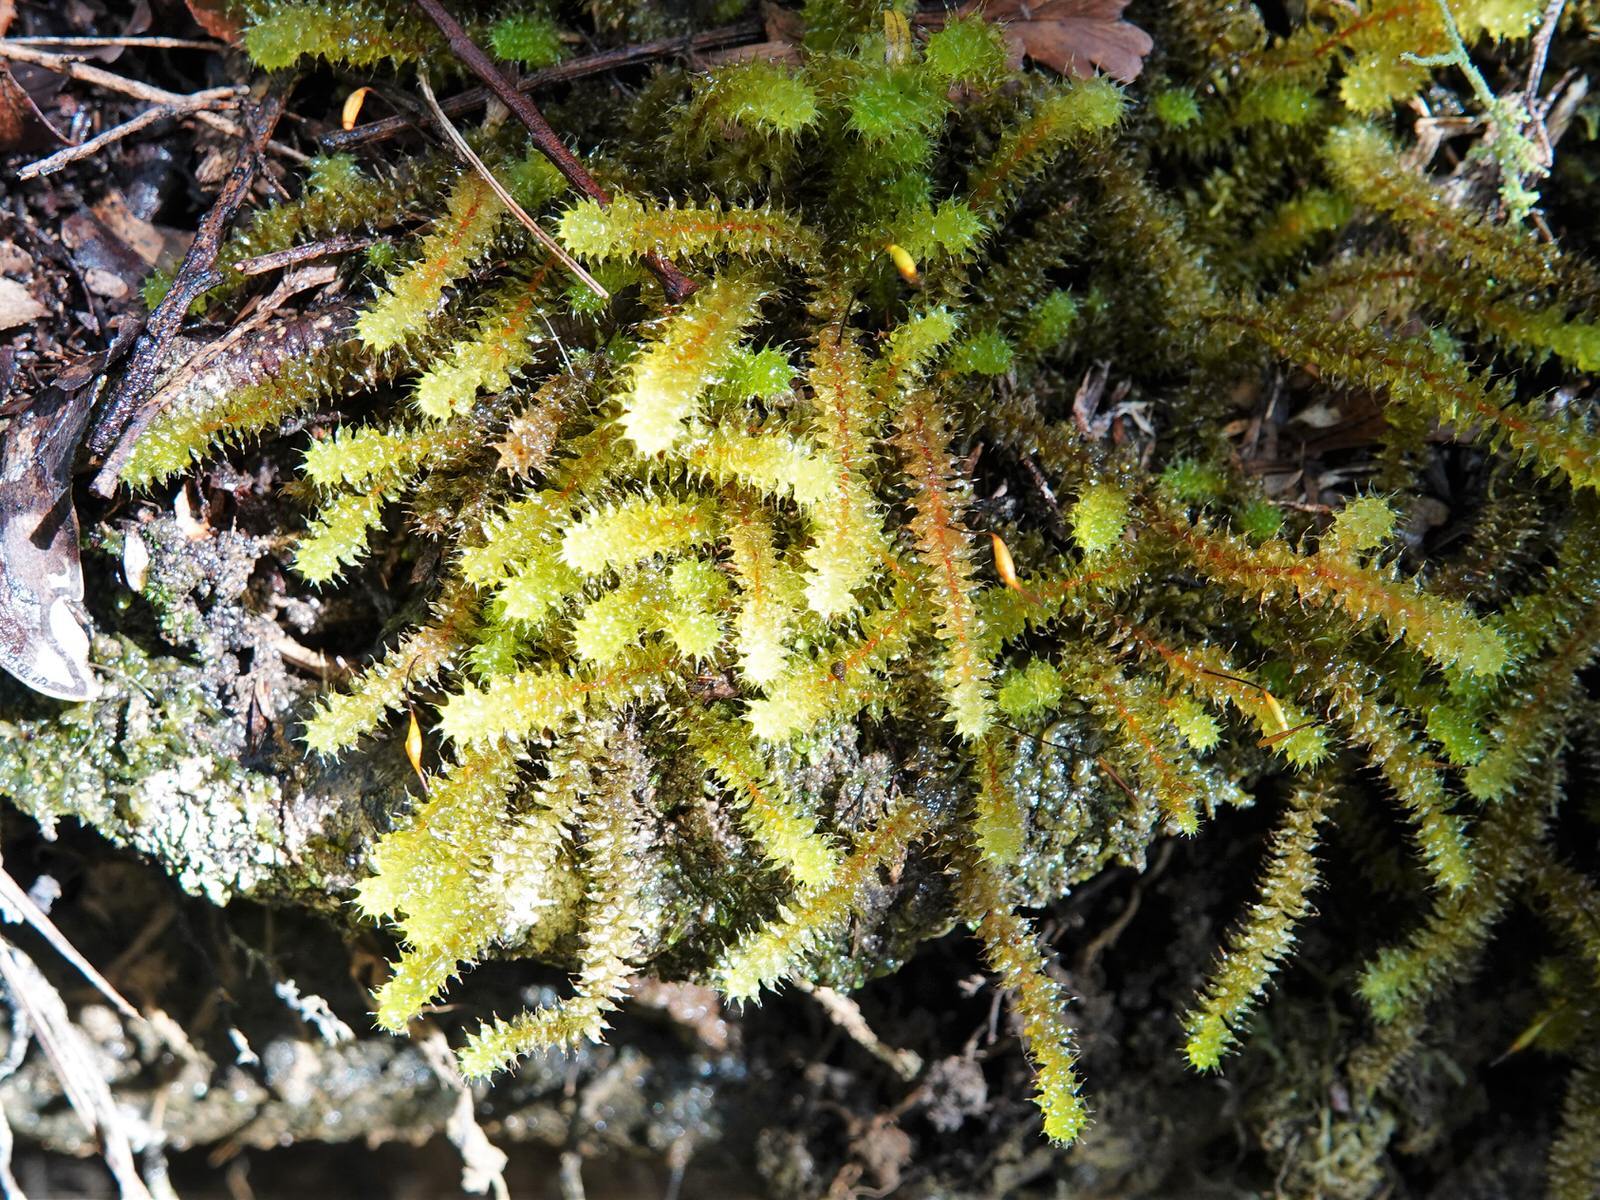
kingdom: Plantae
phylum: Bryophyta
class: Bryopsida
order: Ptychomniales
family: Ptychomniaceae
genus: Ptychomnion
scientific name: Ptychomnion aciculare
